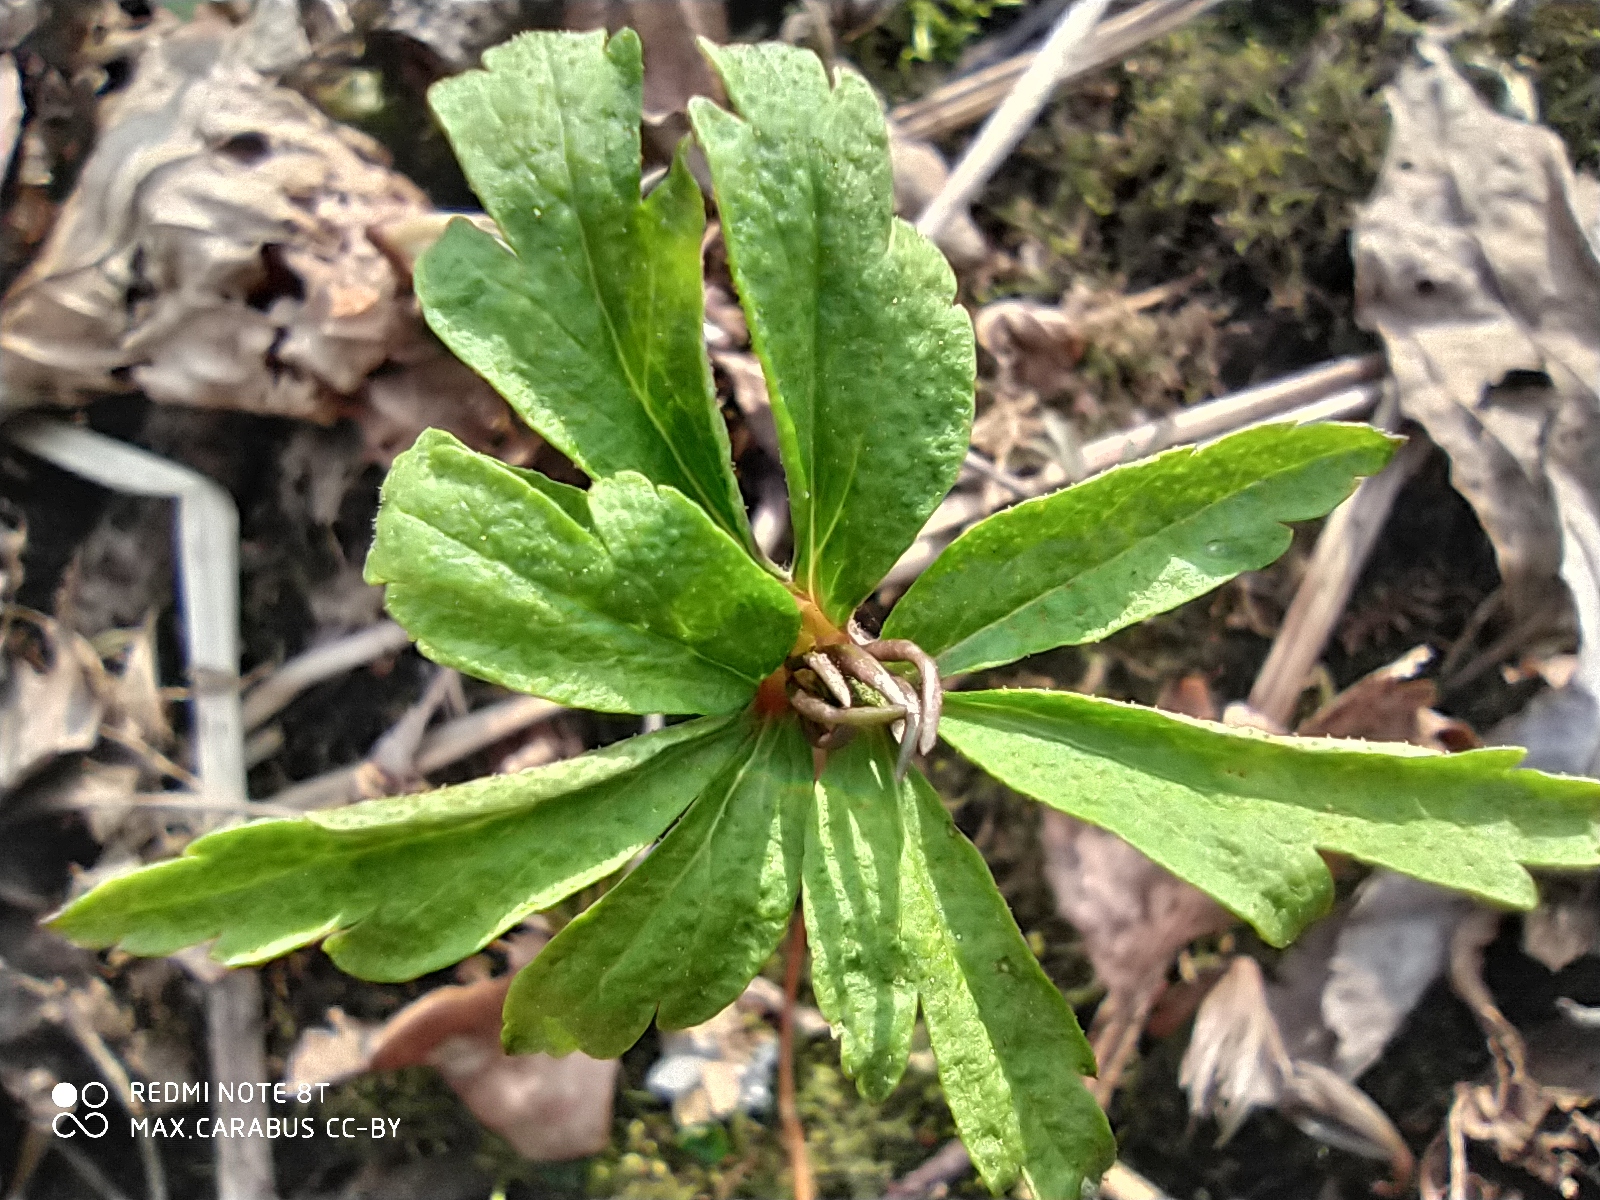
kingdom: Plantae
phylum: Tracheophyta
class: Magnoliopsida
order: Ranunculales
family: Ranunculaceae
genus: Anemone
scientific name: Anemone ranunculoides
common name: Yellow anemone
